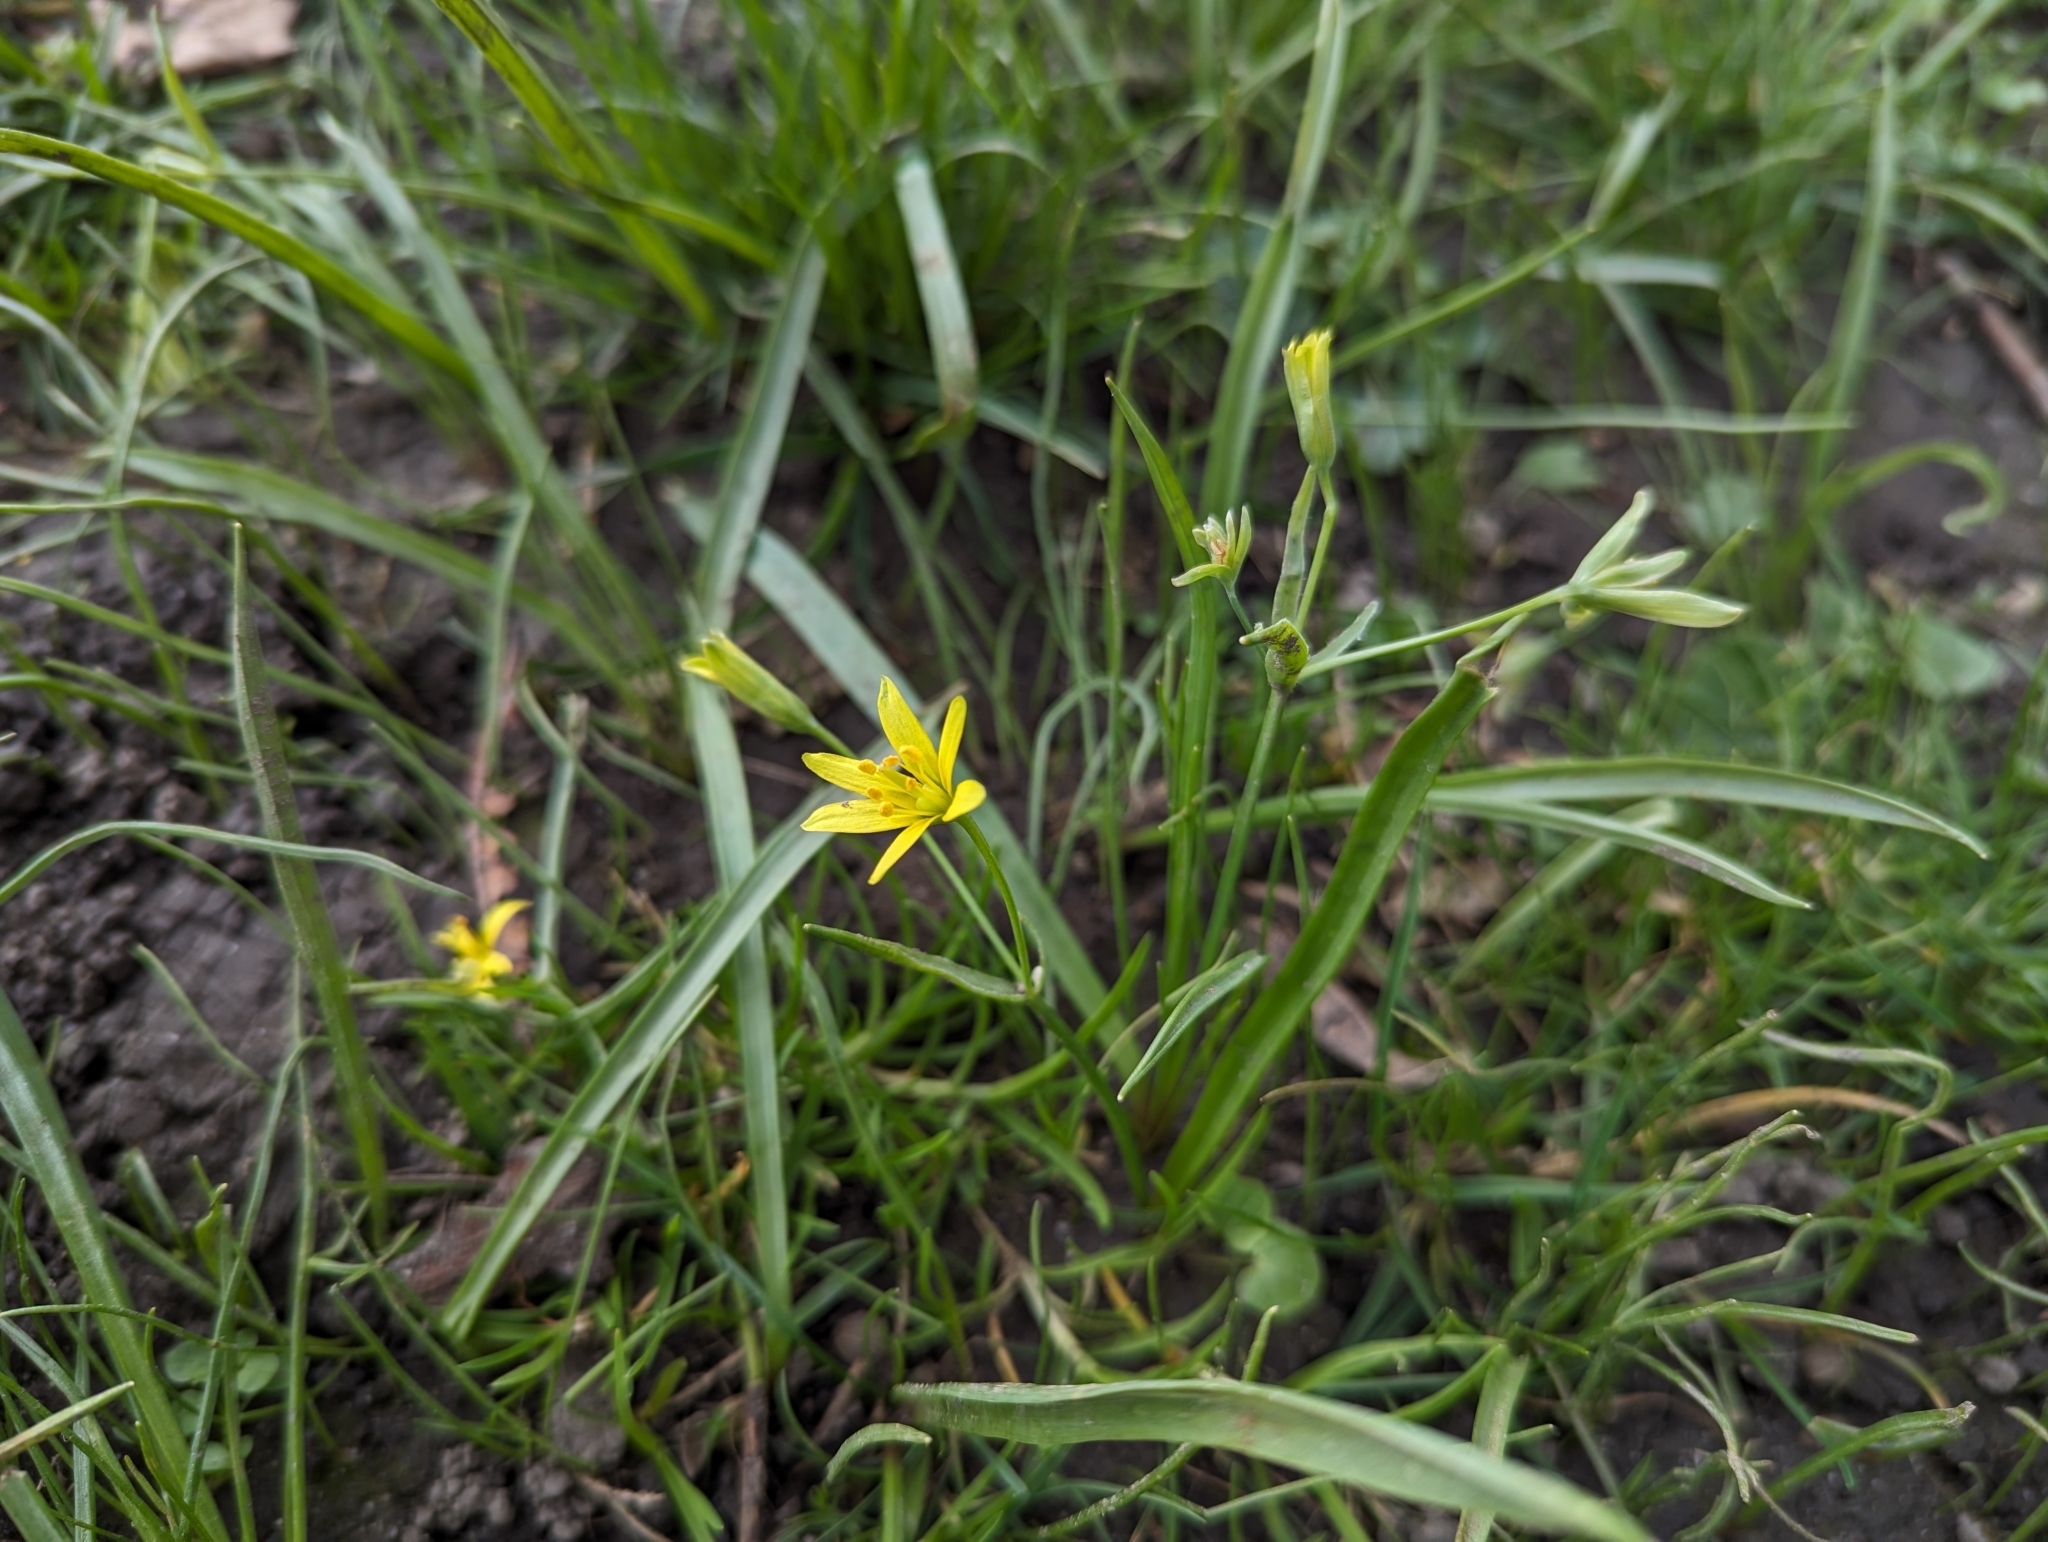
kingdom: Plantae
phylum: Tracheophyta
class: Liliopsida
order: Liliales
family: Liliaceae
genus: Gagea
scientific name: Gagea lutea
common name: Yellow star-of-bethlehem
